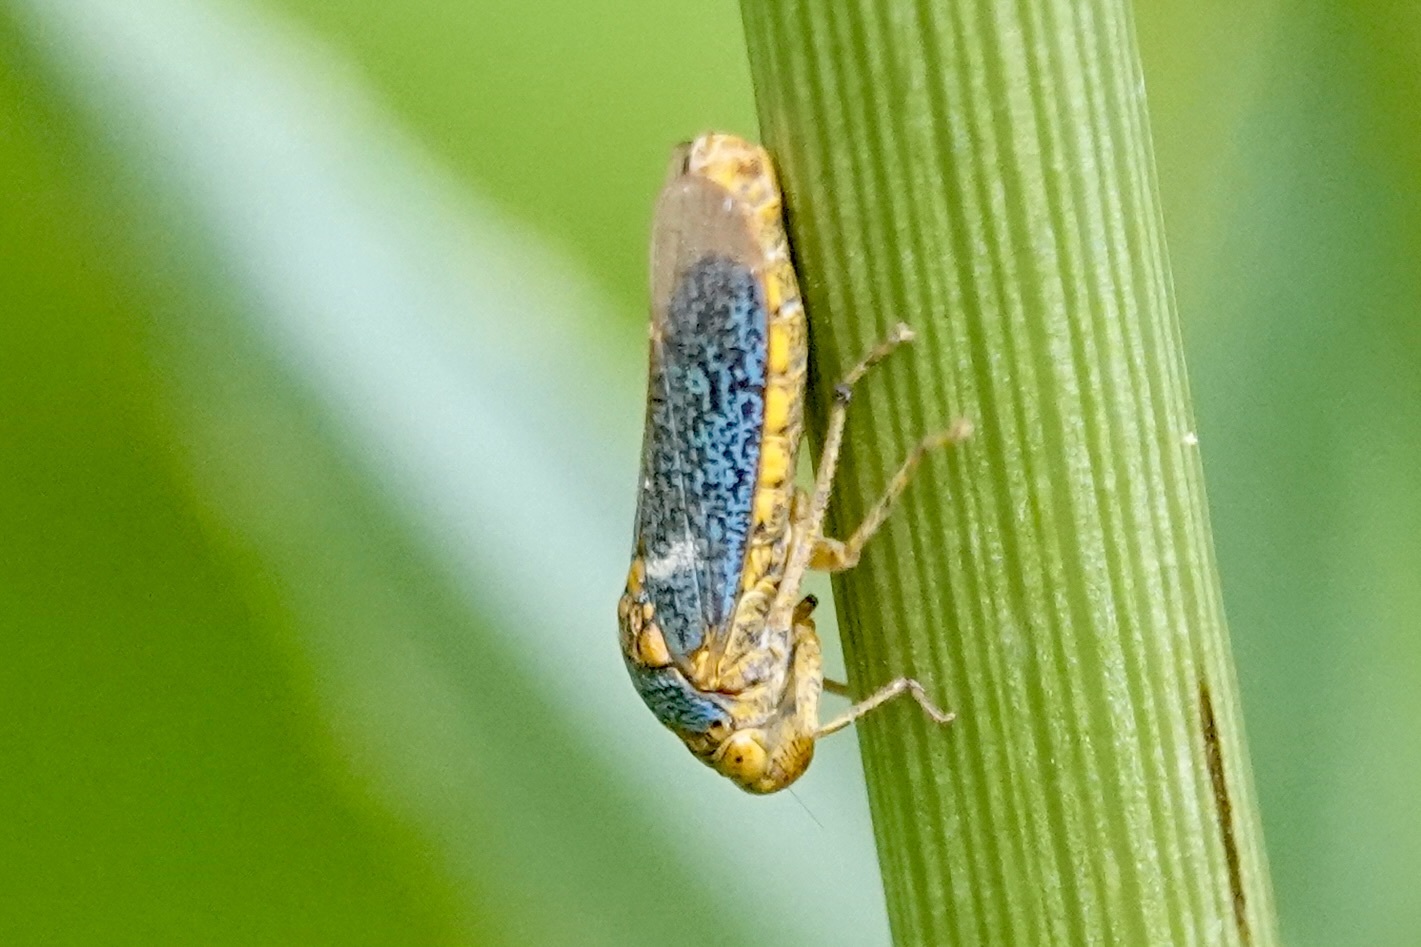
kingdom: Animalia
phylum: Arthropoda
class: Insecta
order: Hemiptera
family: Cicadellidae
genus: Oncometopia
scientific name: Oncometopia orbona
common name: Broad-headed sharpshooter
